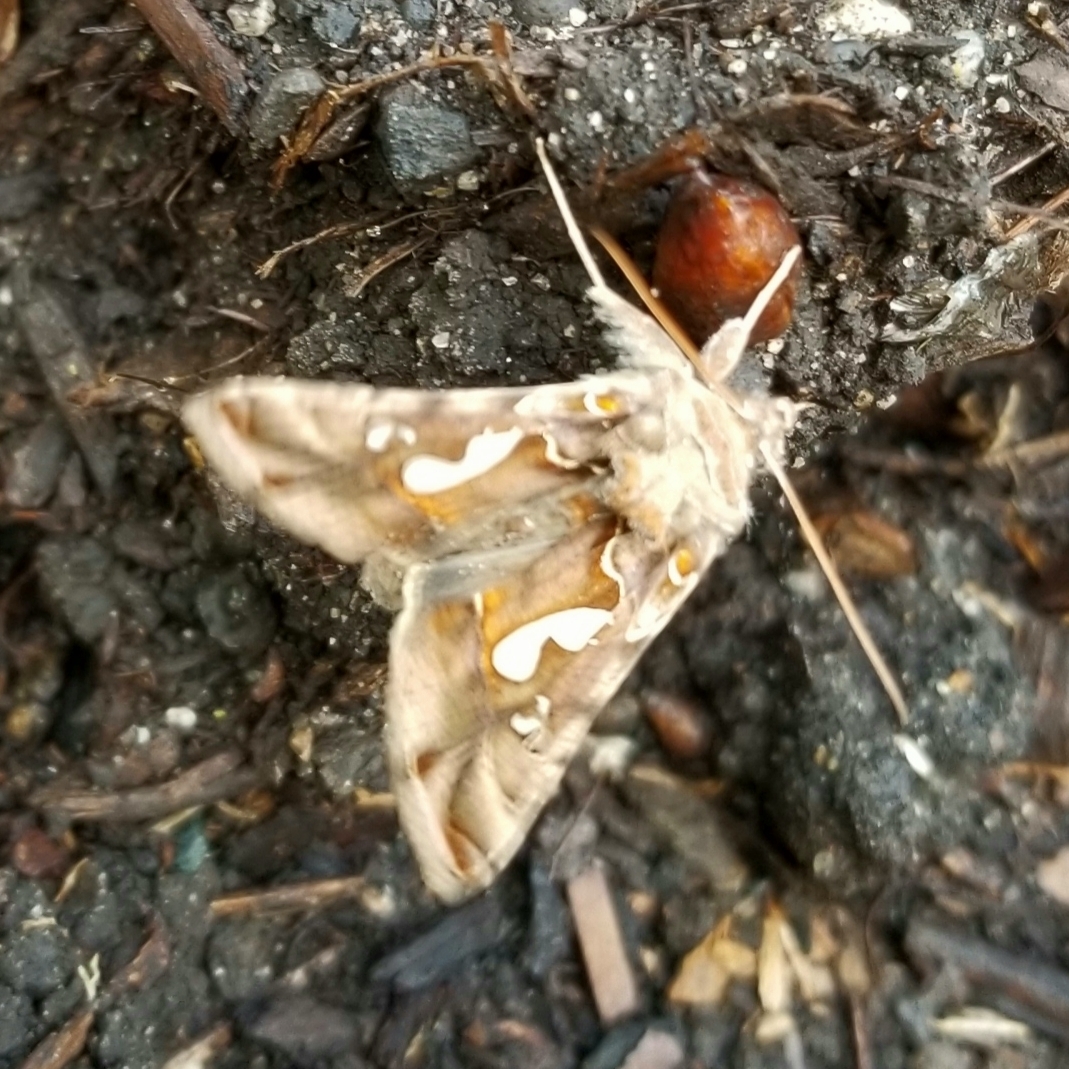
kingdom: Animalia
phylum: Arthropoda
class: Insecta
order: Lepidoptera
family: Noctuidae
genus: Megalographa
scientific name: Megalographa biloba
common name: Cutworm
